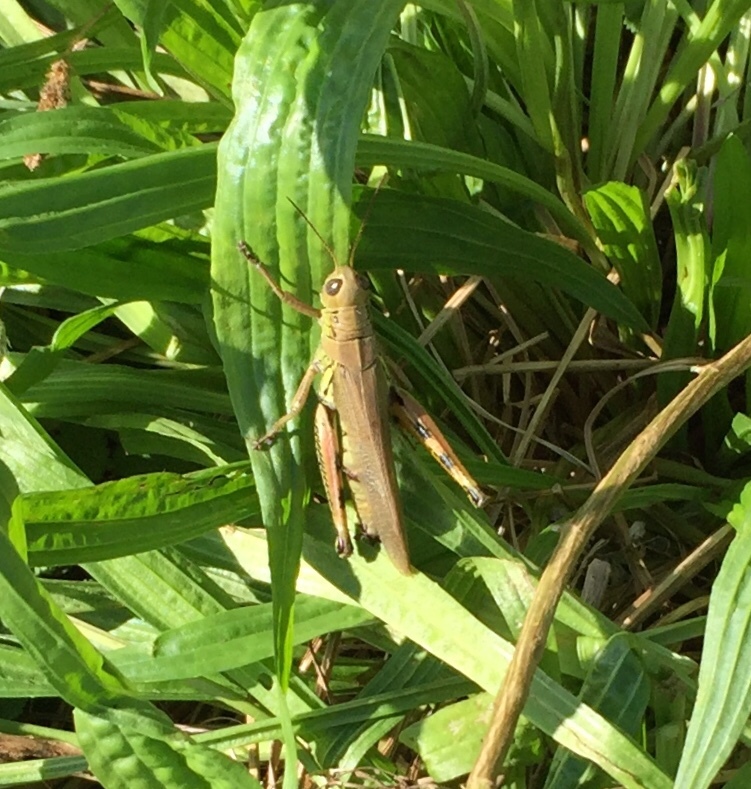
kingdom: Animalia
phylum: Arthropoda
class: Insecta
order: Orthoptera
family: Acrididae
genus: Melanoplus
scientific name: Melanoplus differentialis
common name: Differential grasshopper
